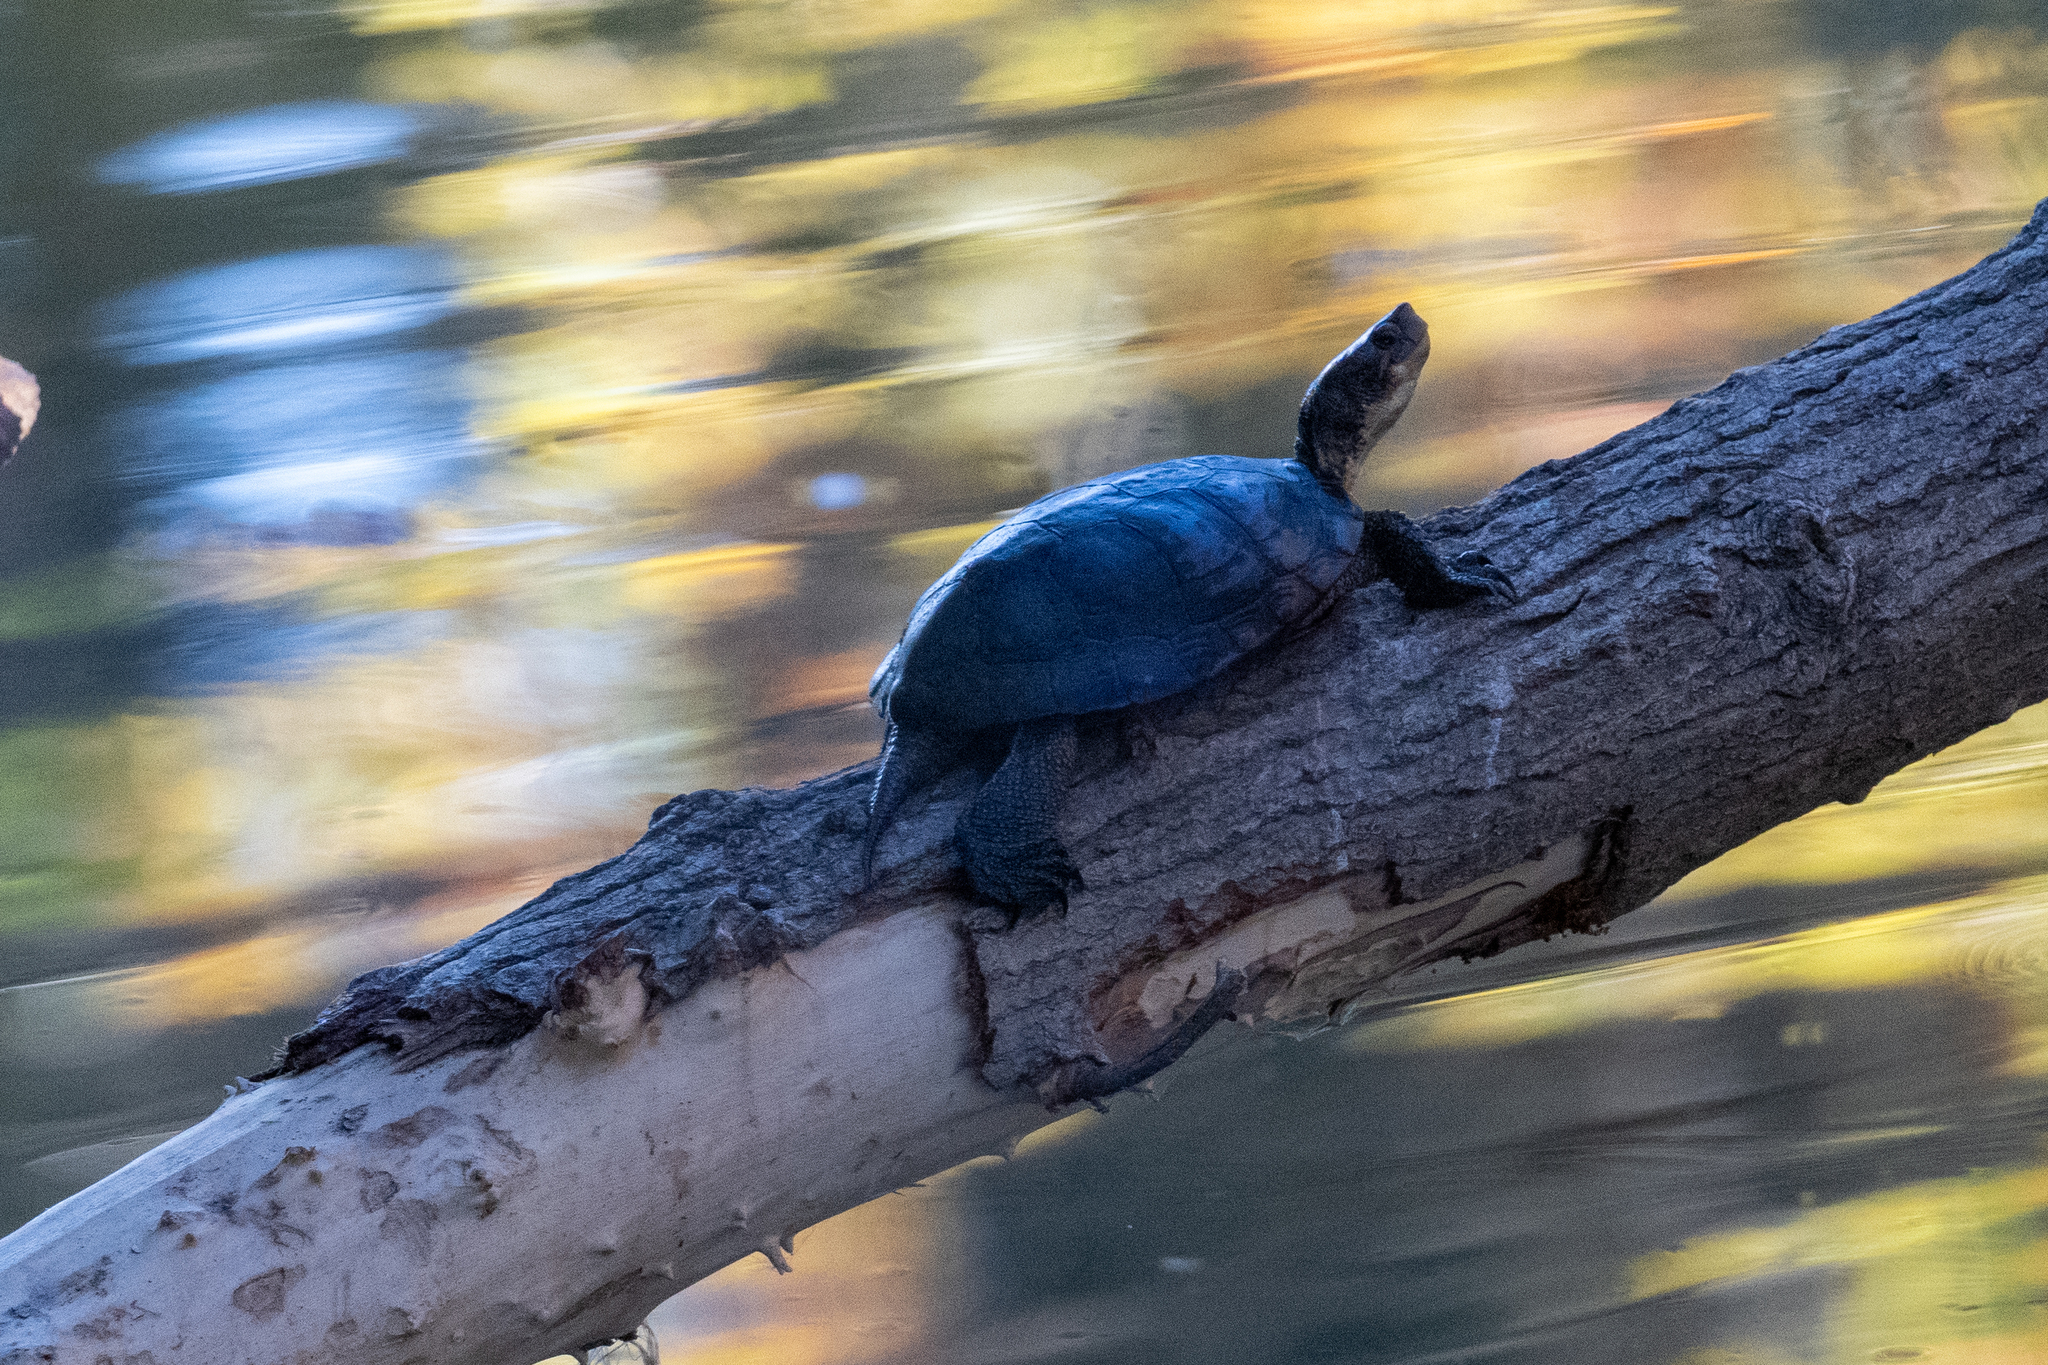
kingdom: Animalia
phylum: Chordata
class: Testudines
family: Emydidae
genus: Actinemys
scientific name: Actinemys marmorata
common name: Western pond turtle
